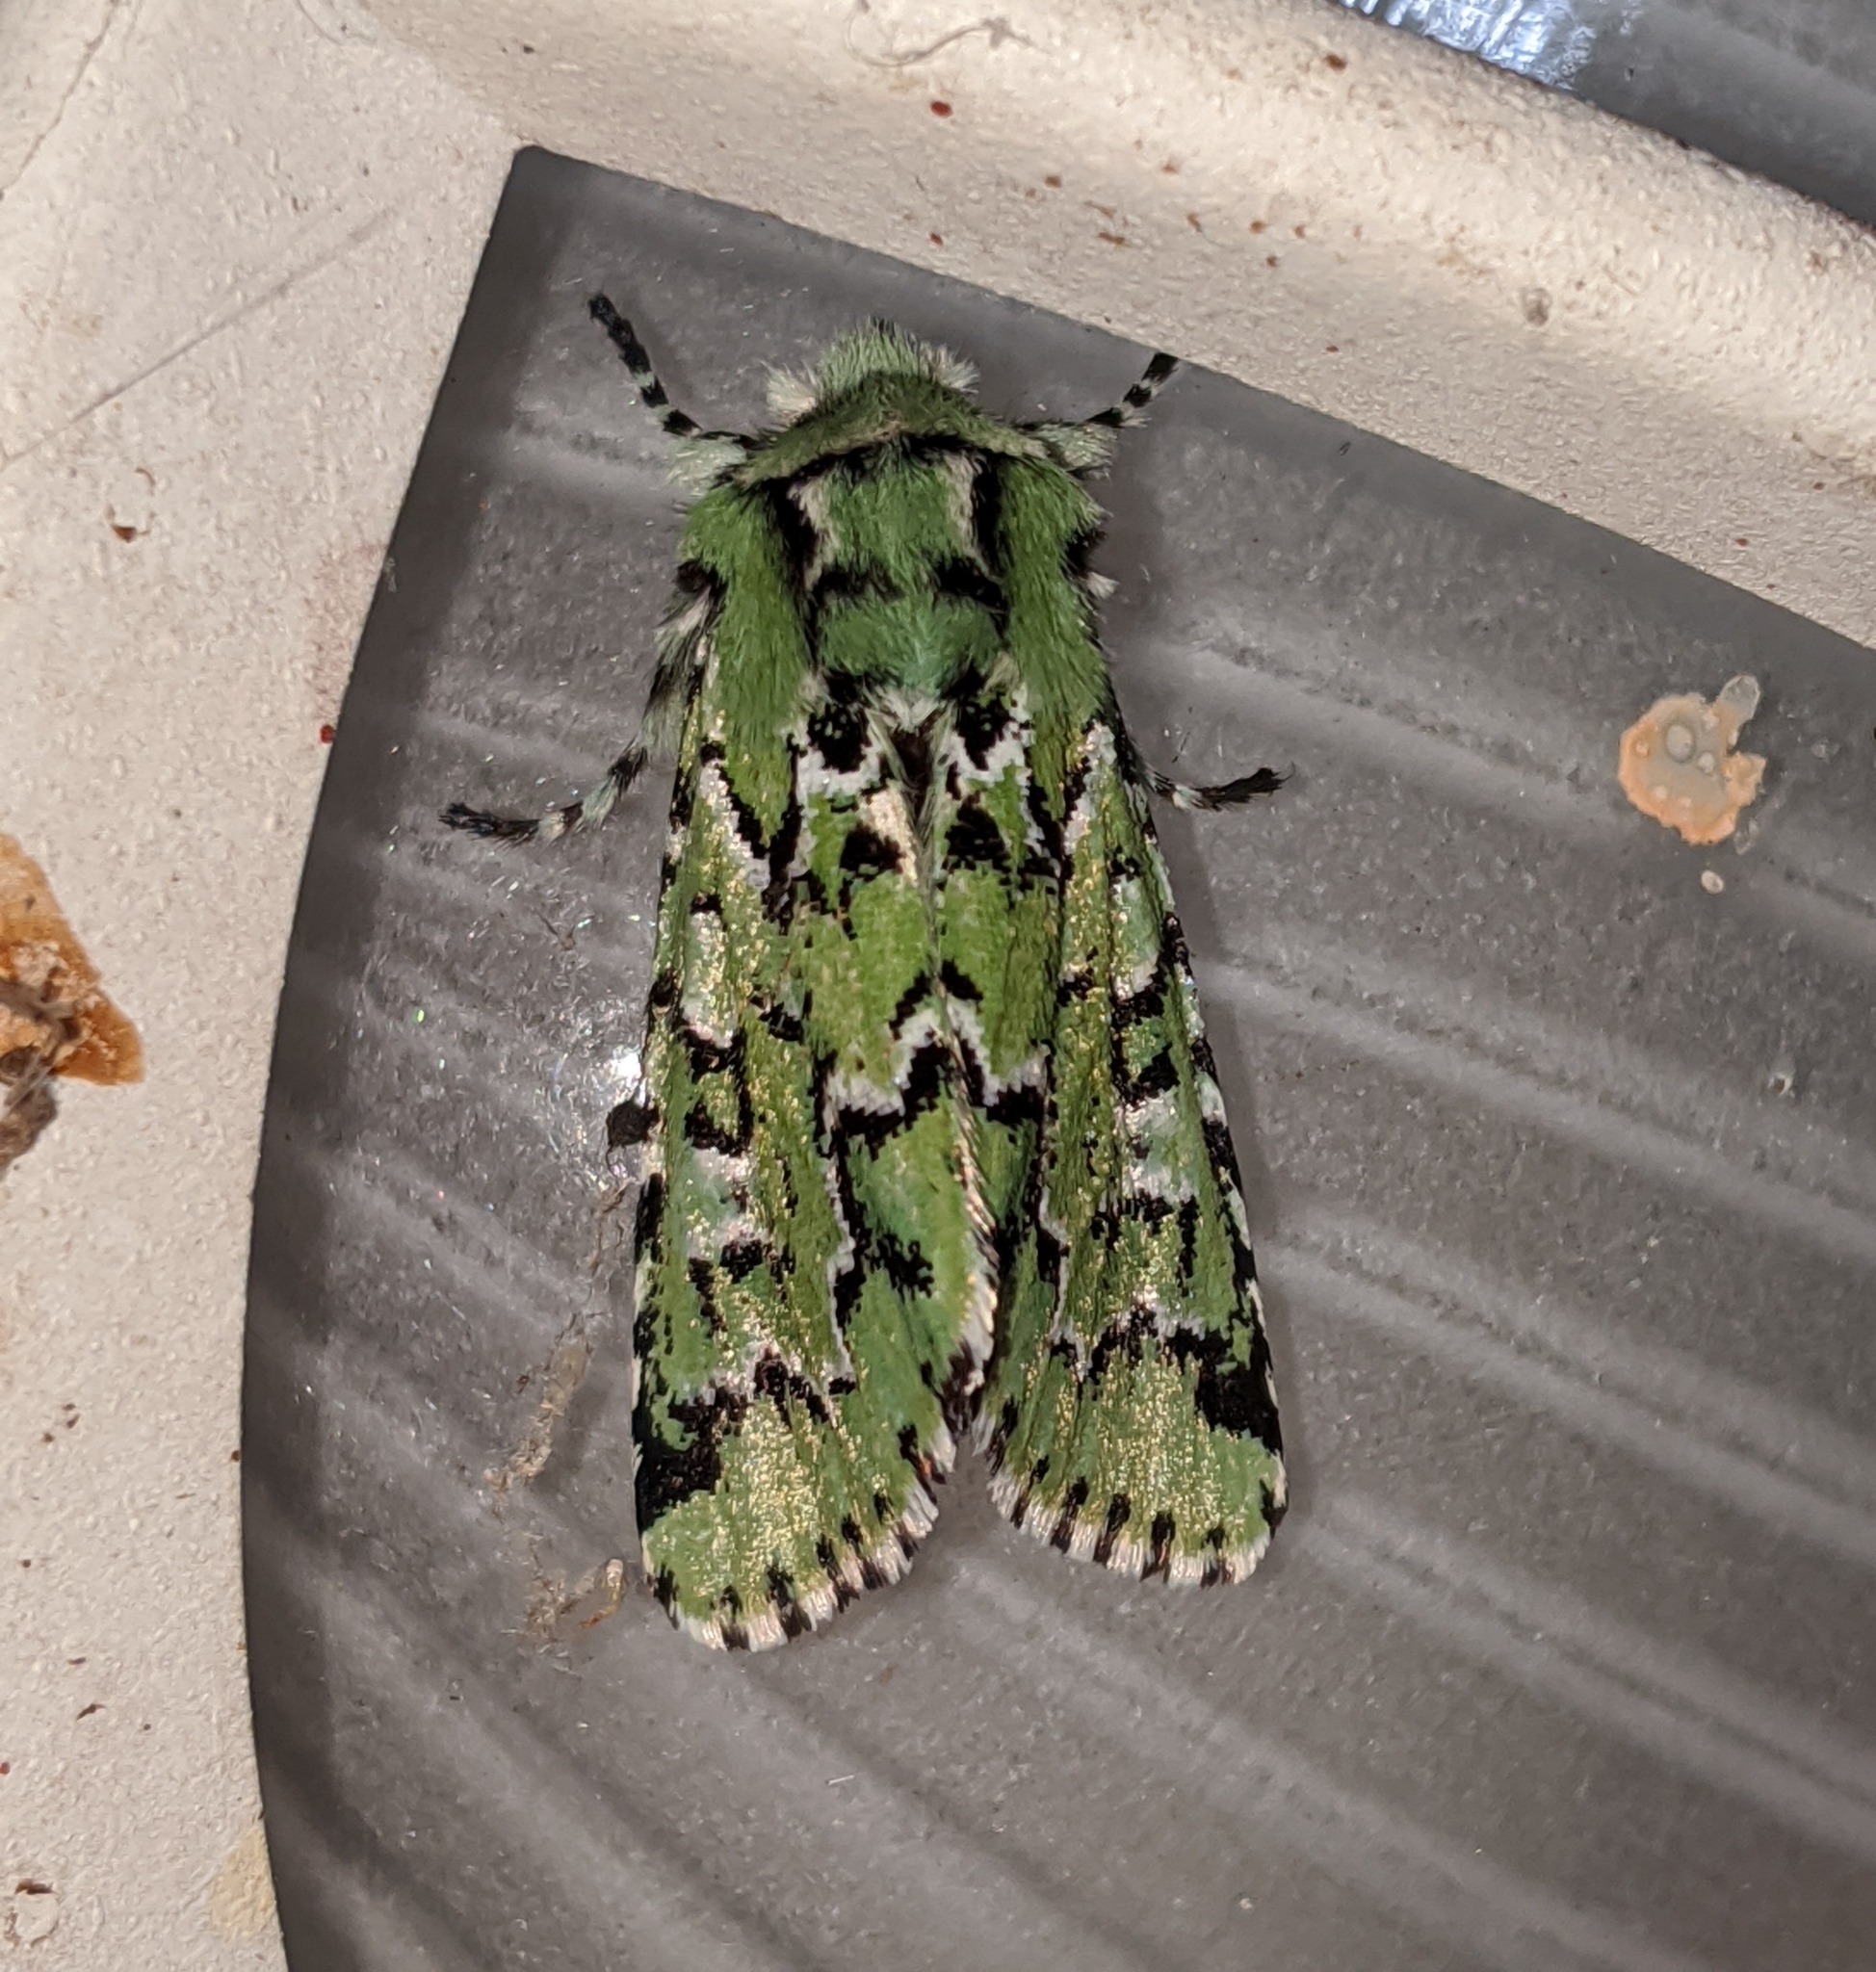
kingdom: Animalia
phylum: Arthropoda
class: Insecta
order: Lepidoptera
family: Noctuidae
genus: Feralia
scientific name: Feralia deceptiva
